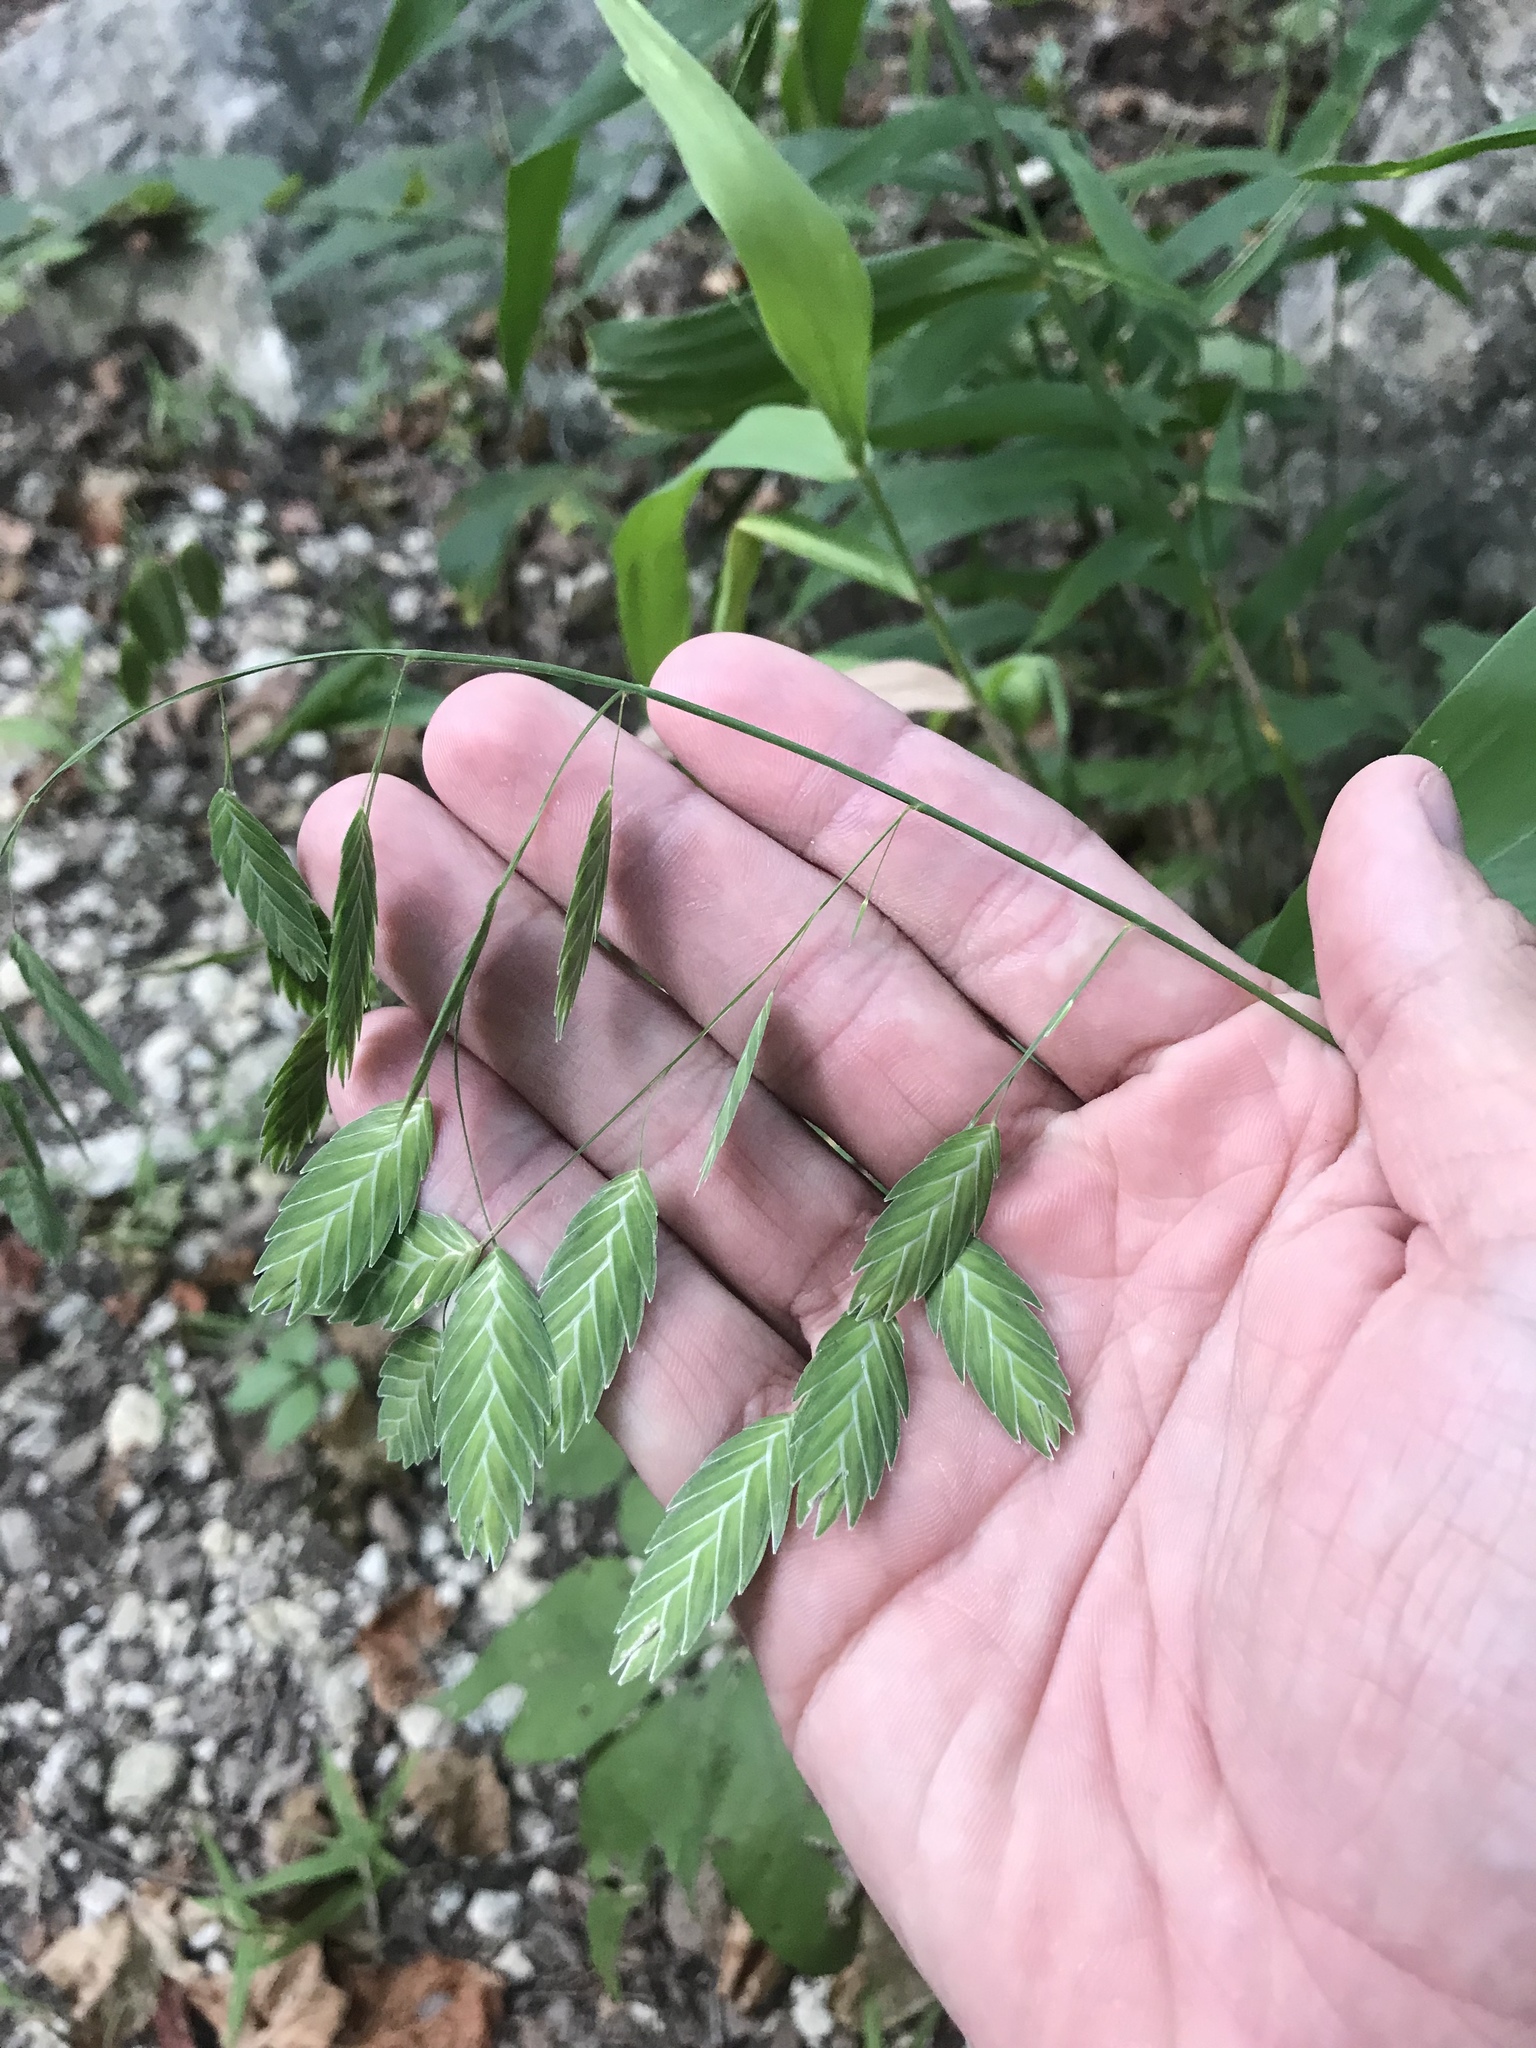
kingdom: Plantae
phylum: Tracheophyta
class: Liliopsida
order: Poales
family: Poaceae
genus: Chasmanthium
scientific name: Chasmanthium latifolium
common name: Broad-leaved chasmanthium
